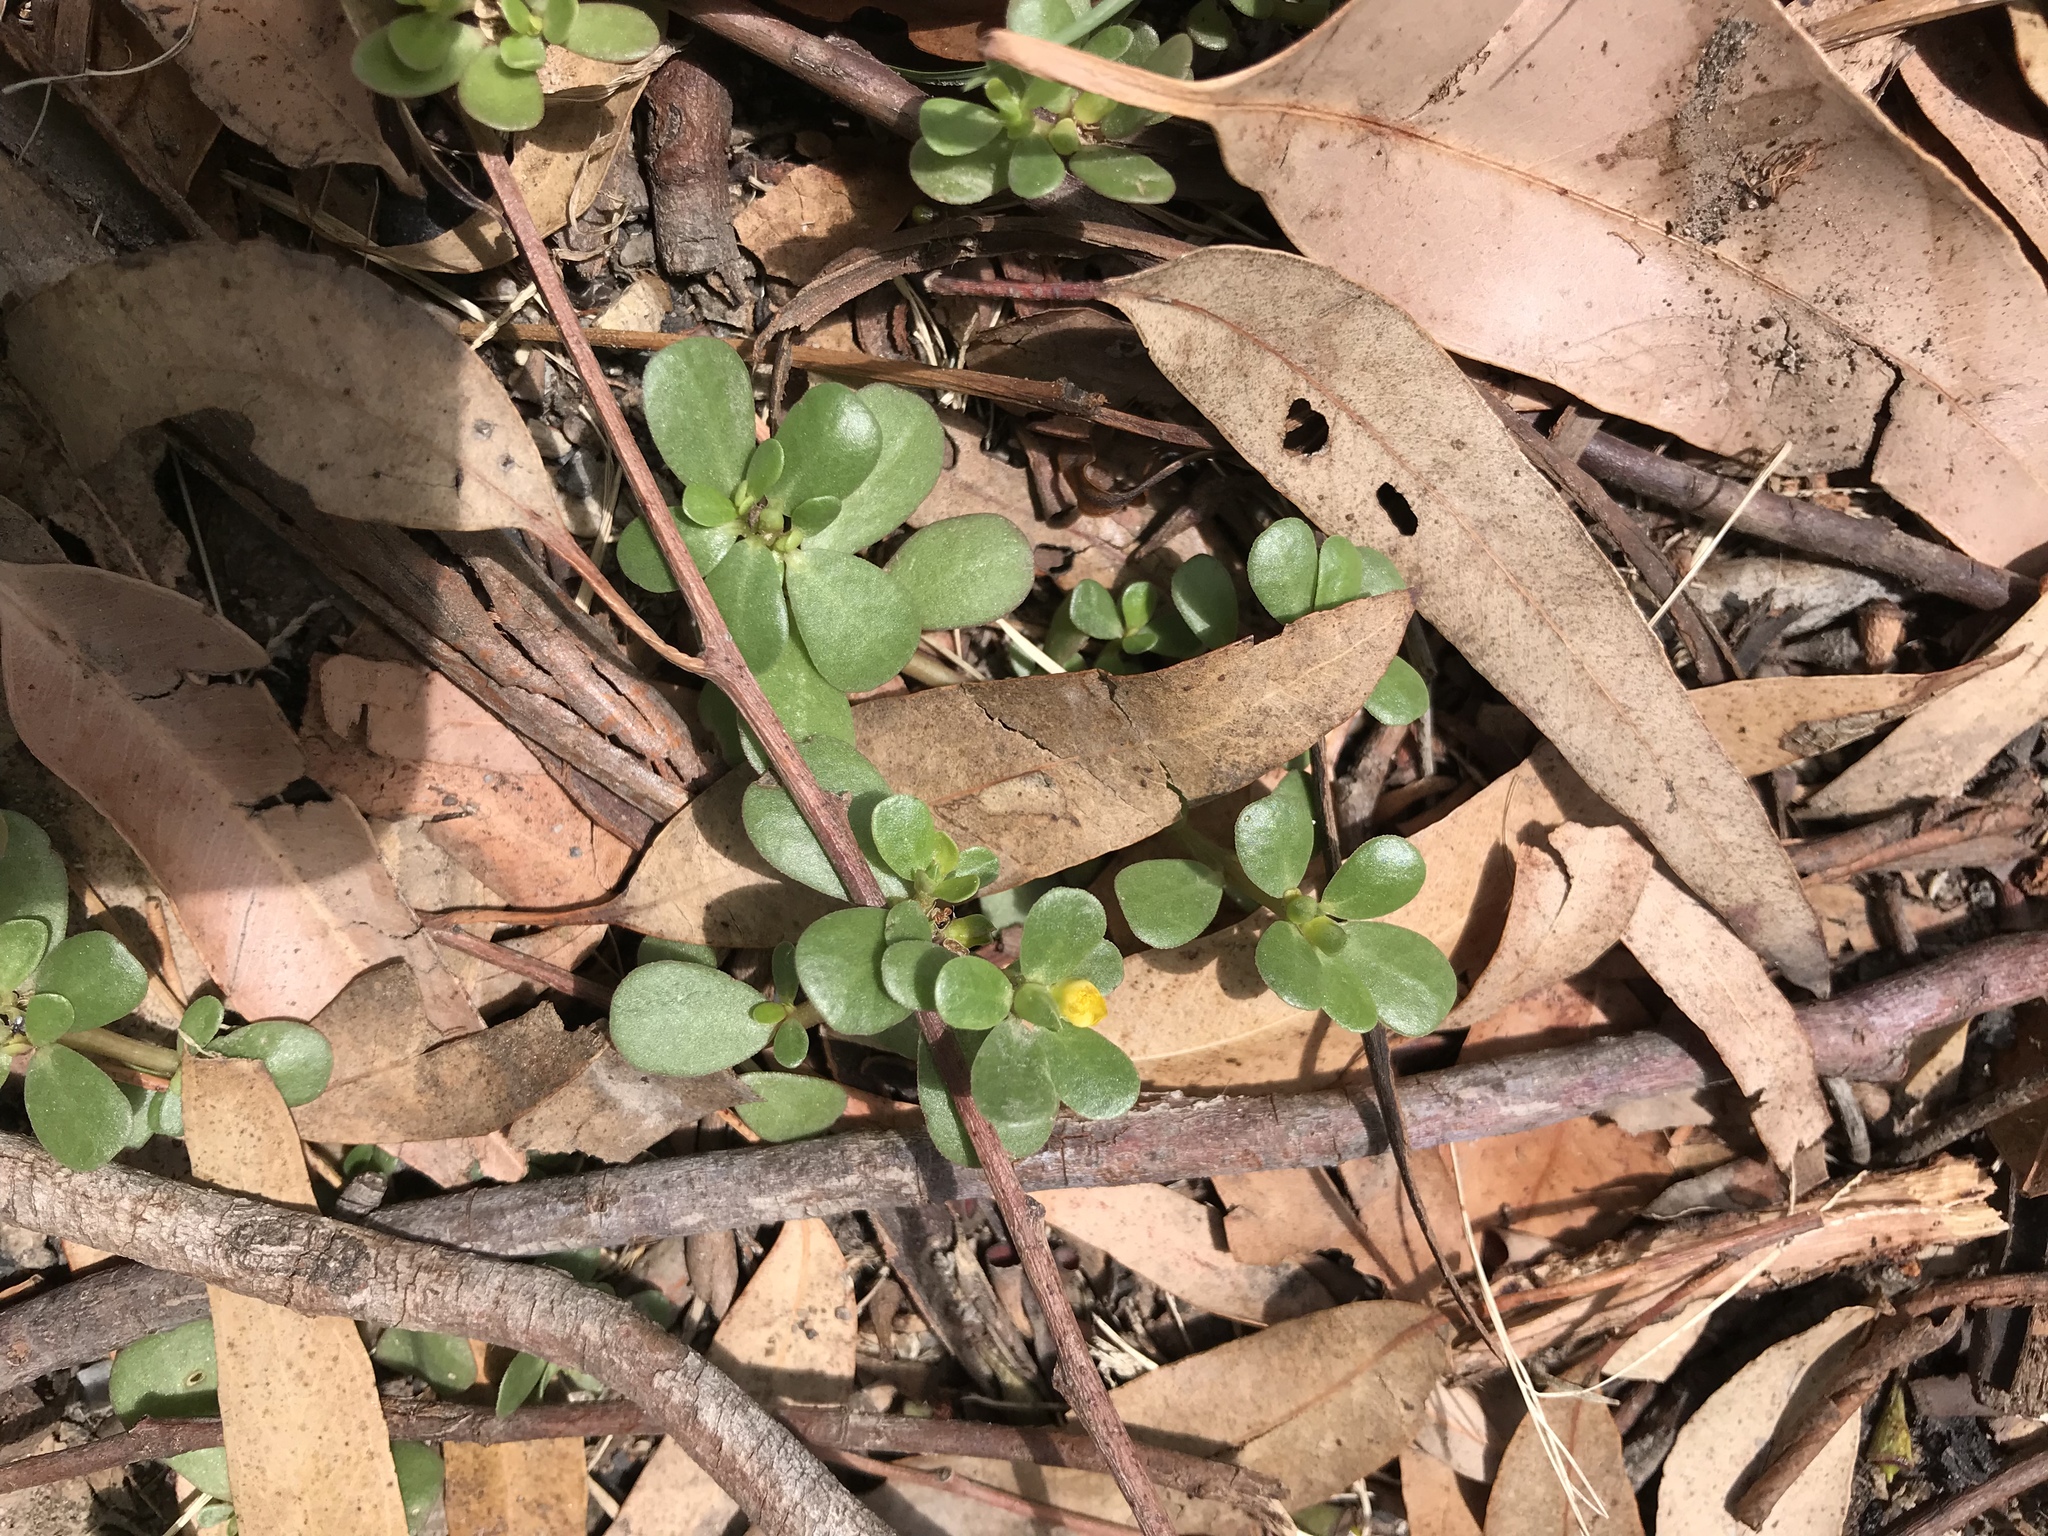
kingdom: Plantae
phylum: Tracheophyta
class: Magnoliopsida
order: Caryophyllales
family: Portulacaceae
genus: Portulaca
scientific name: Portulaca oleracea
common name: Common purslane
